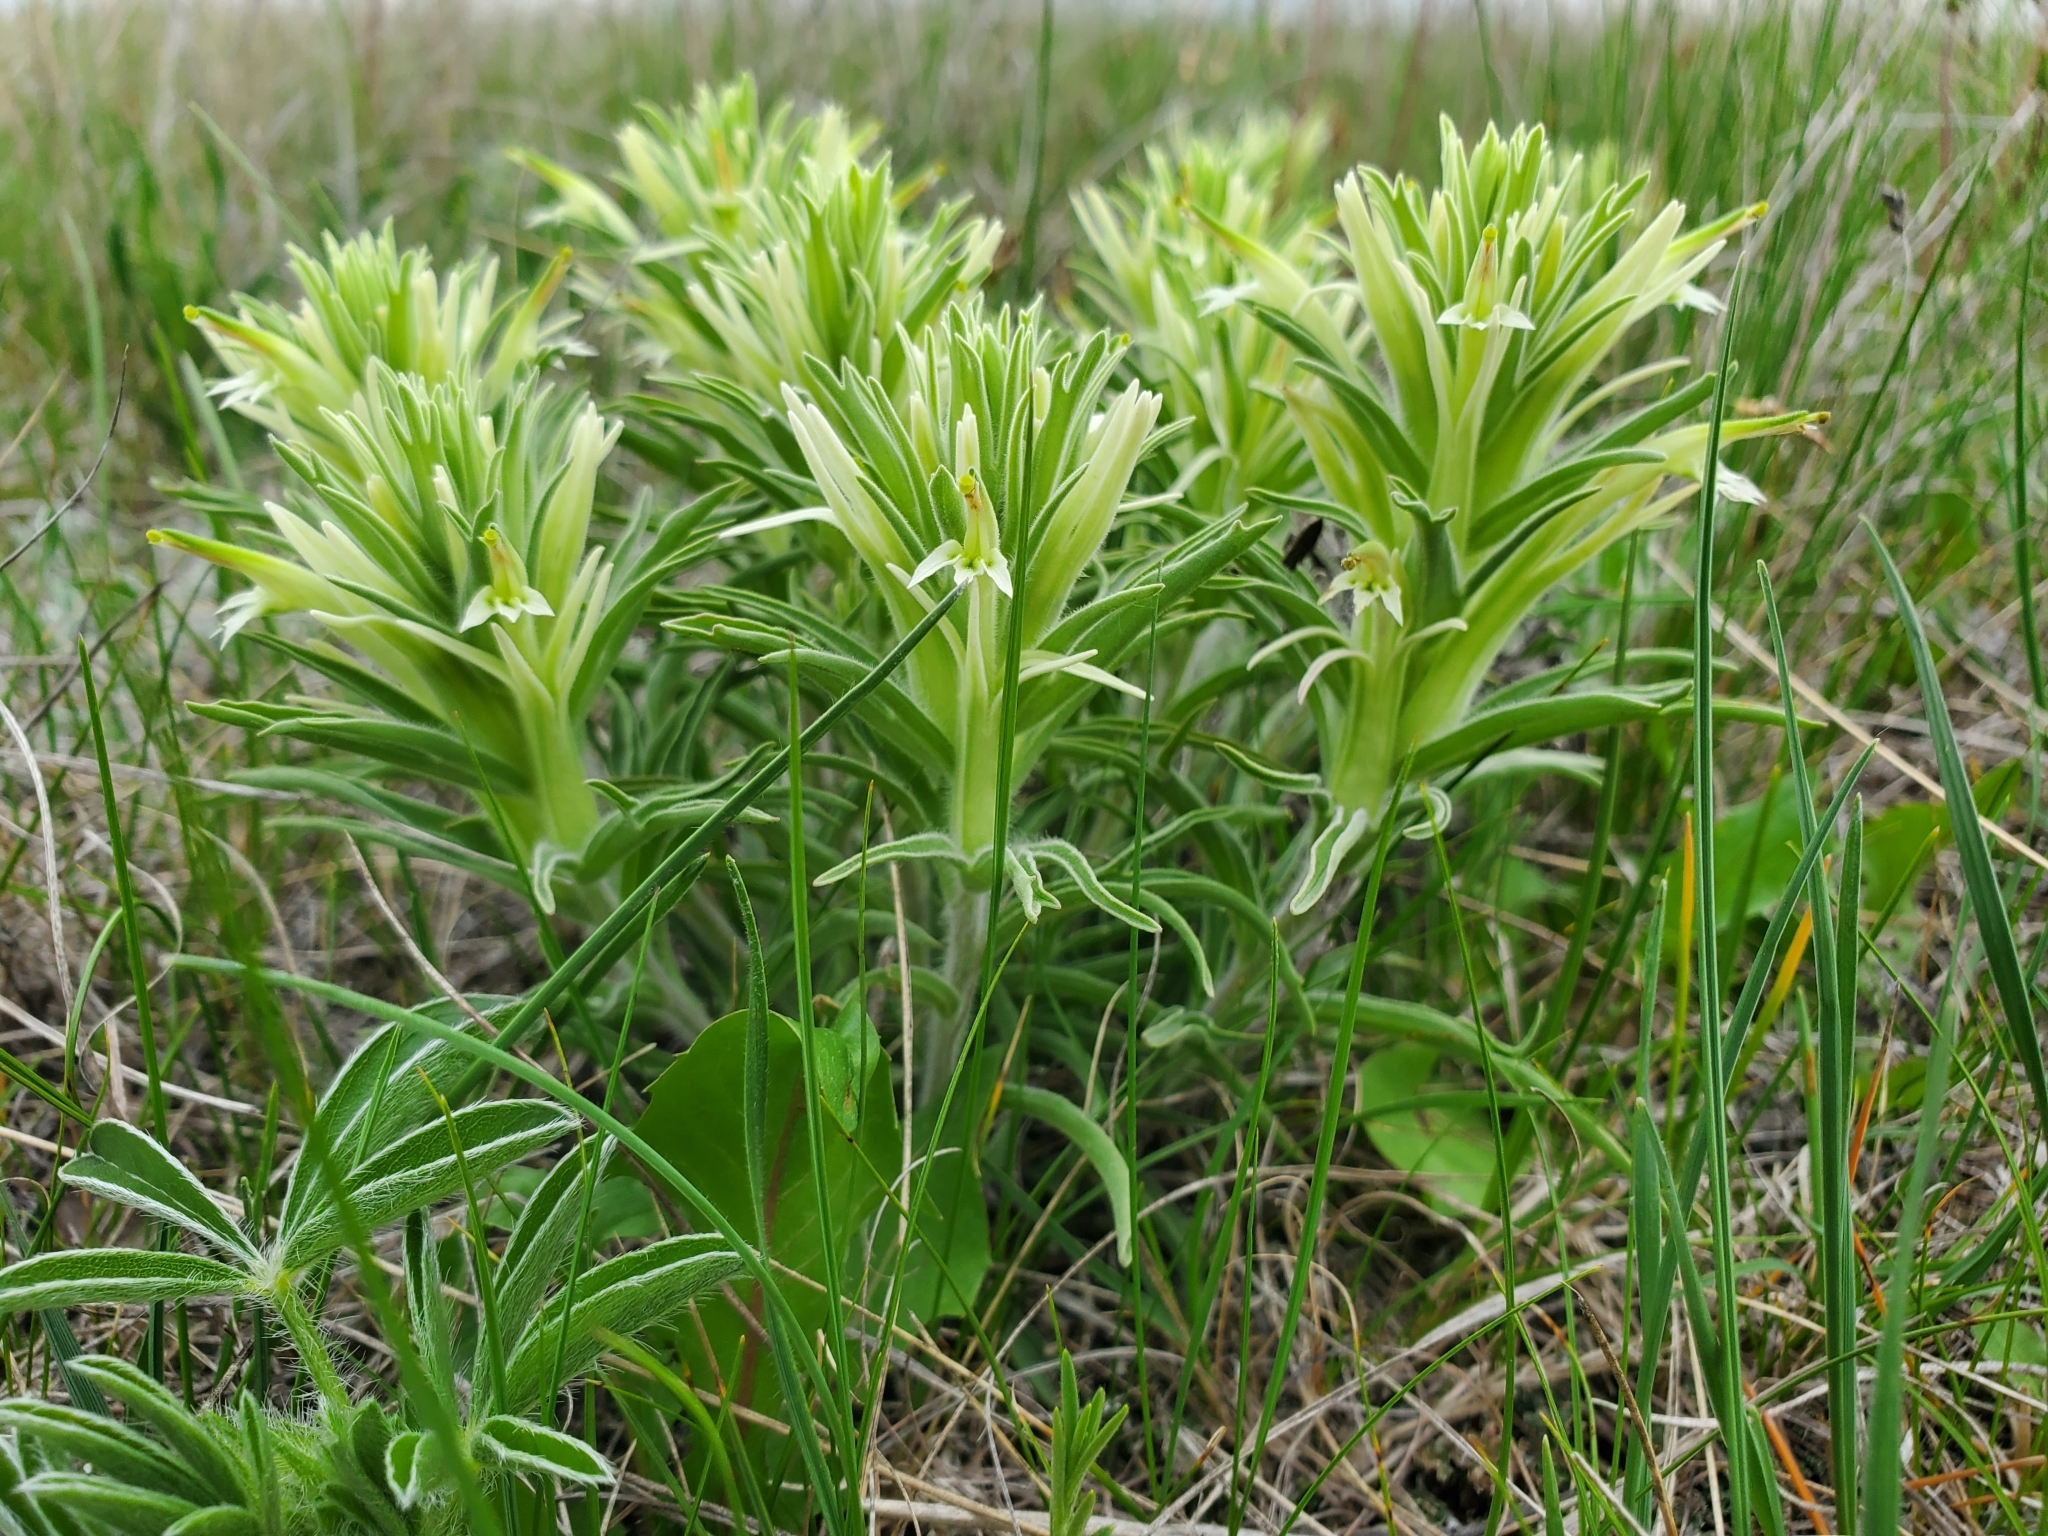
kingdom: Plantae
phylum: Tracheophyta
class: Magnoliopsida
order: Lamiales
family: Orobanchaceae
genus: Castilleja
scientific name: Castilleja sessiliflora
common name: Downy paintbrush
